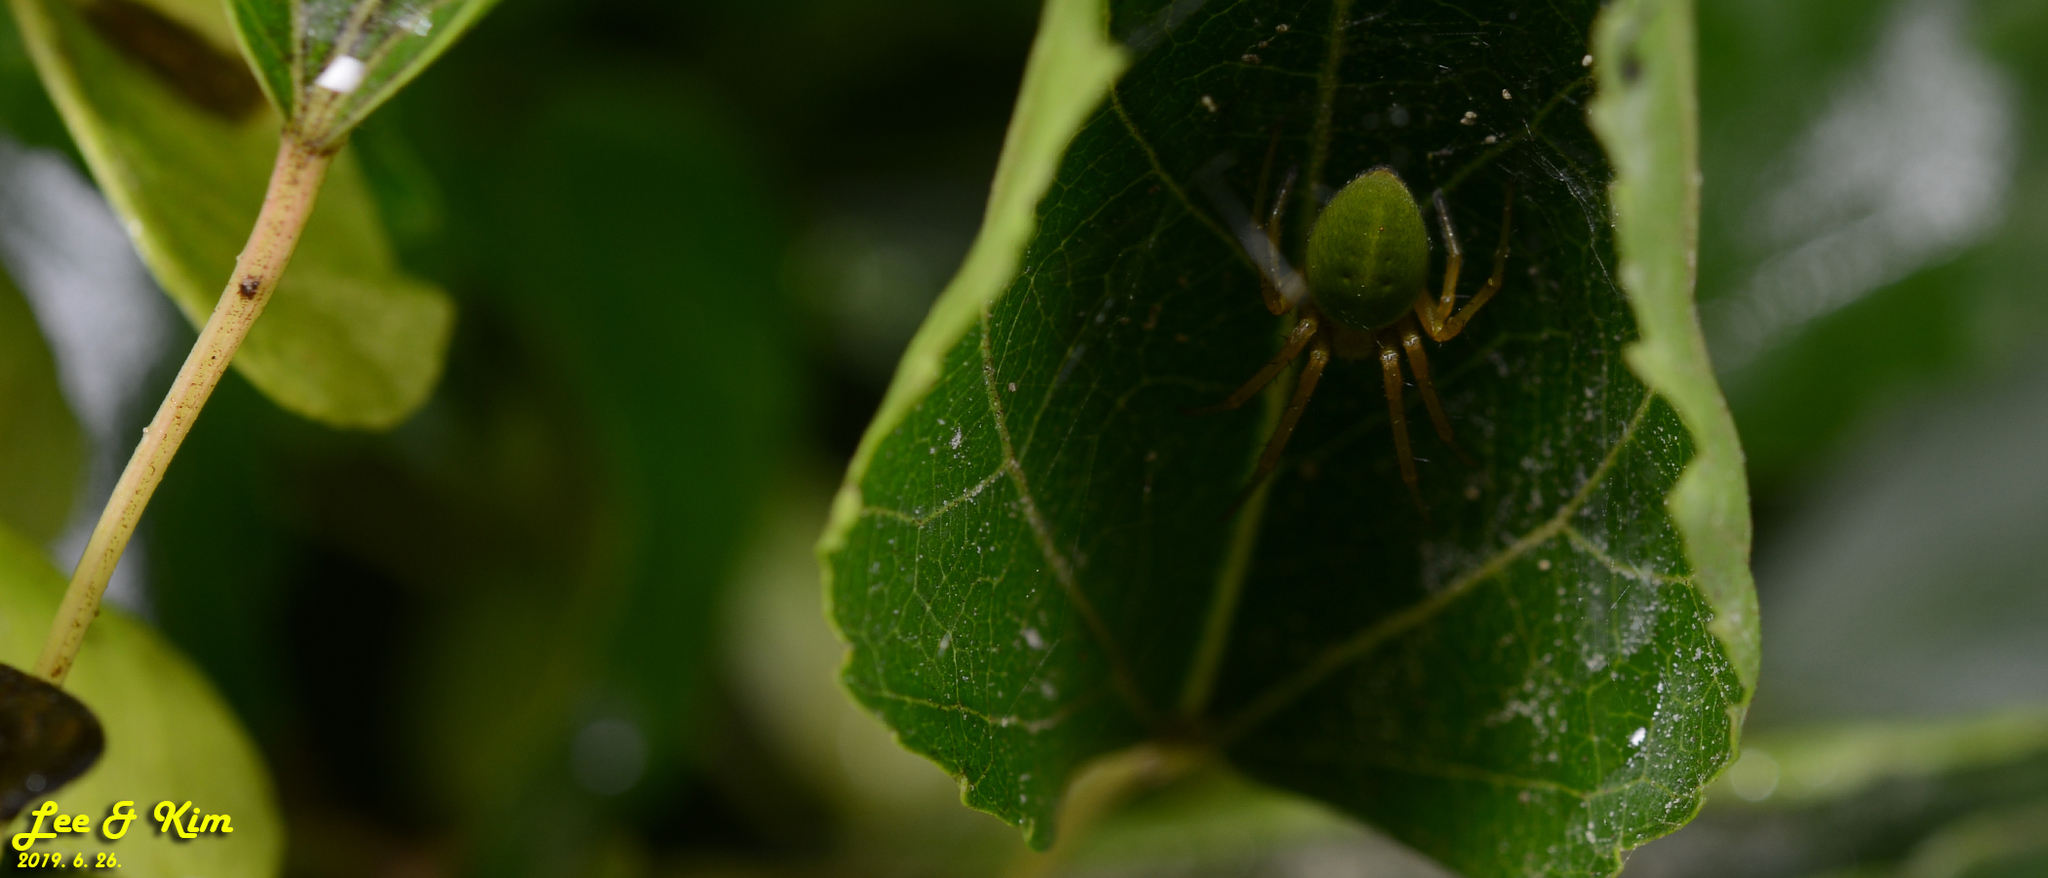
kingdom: Animalia
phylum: Arthropoda
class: Arachnida
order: Araneae
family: Araneidae
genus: Neoscona
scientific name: Neoscona scylloides
